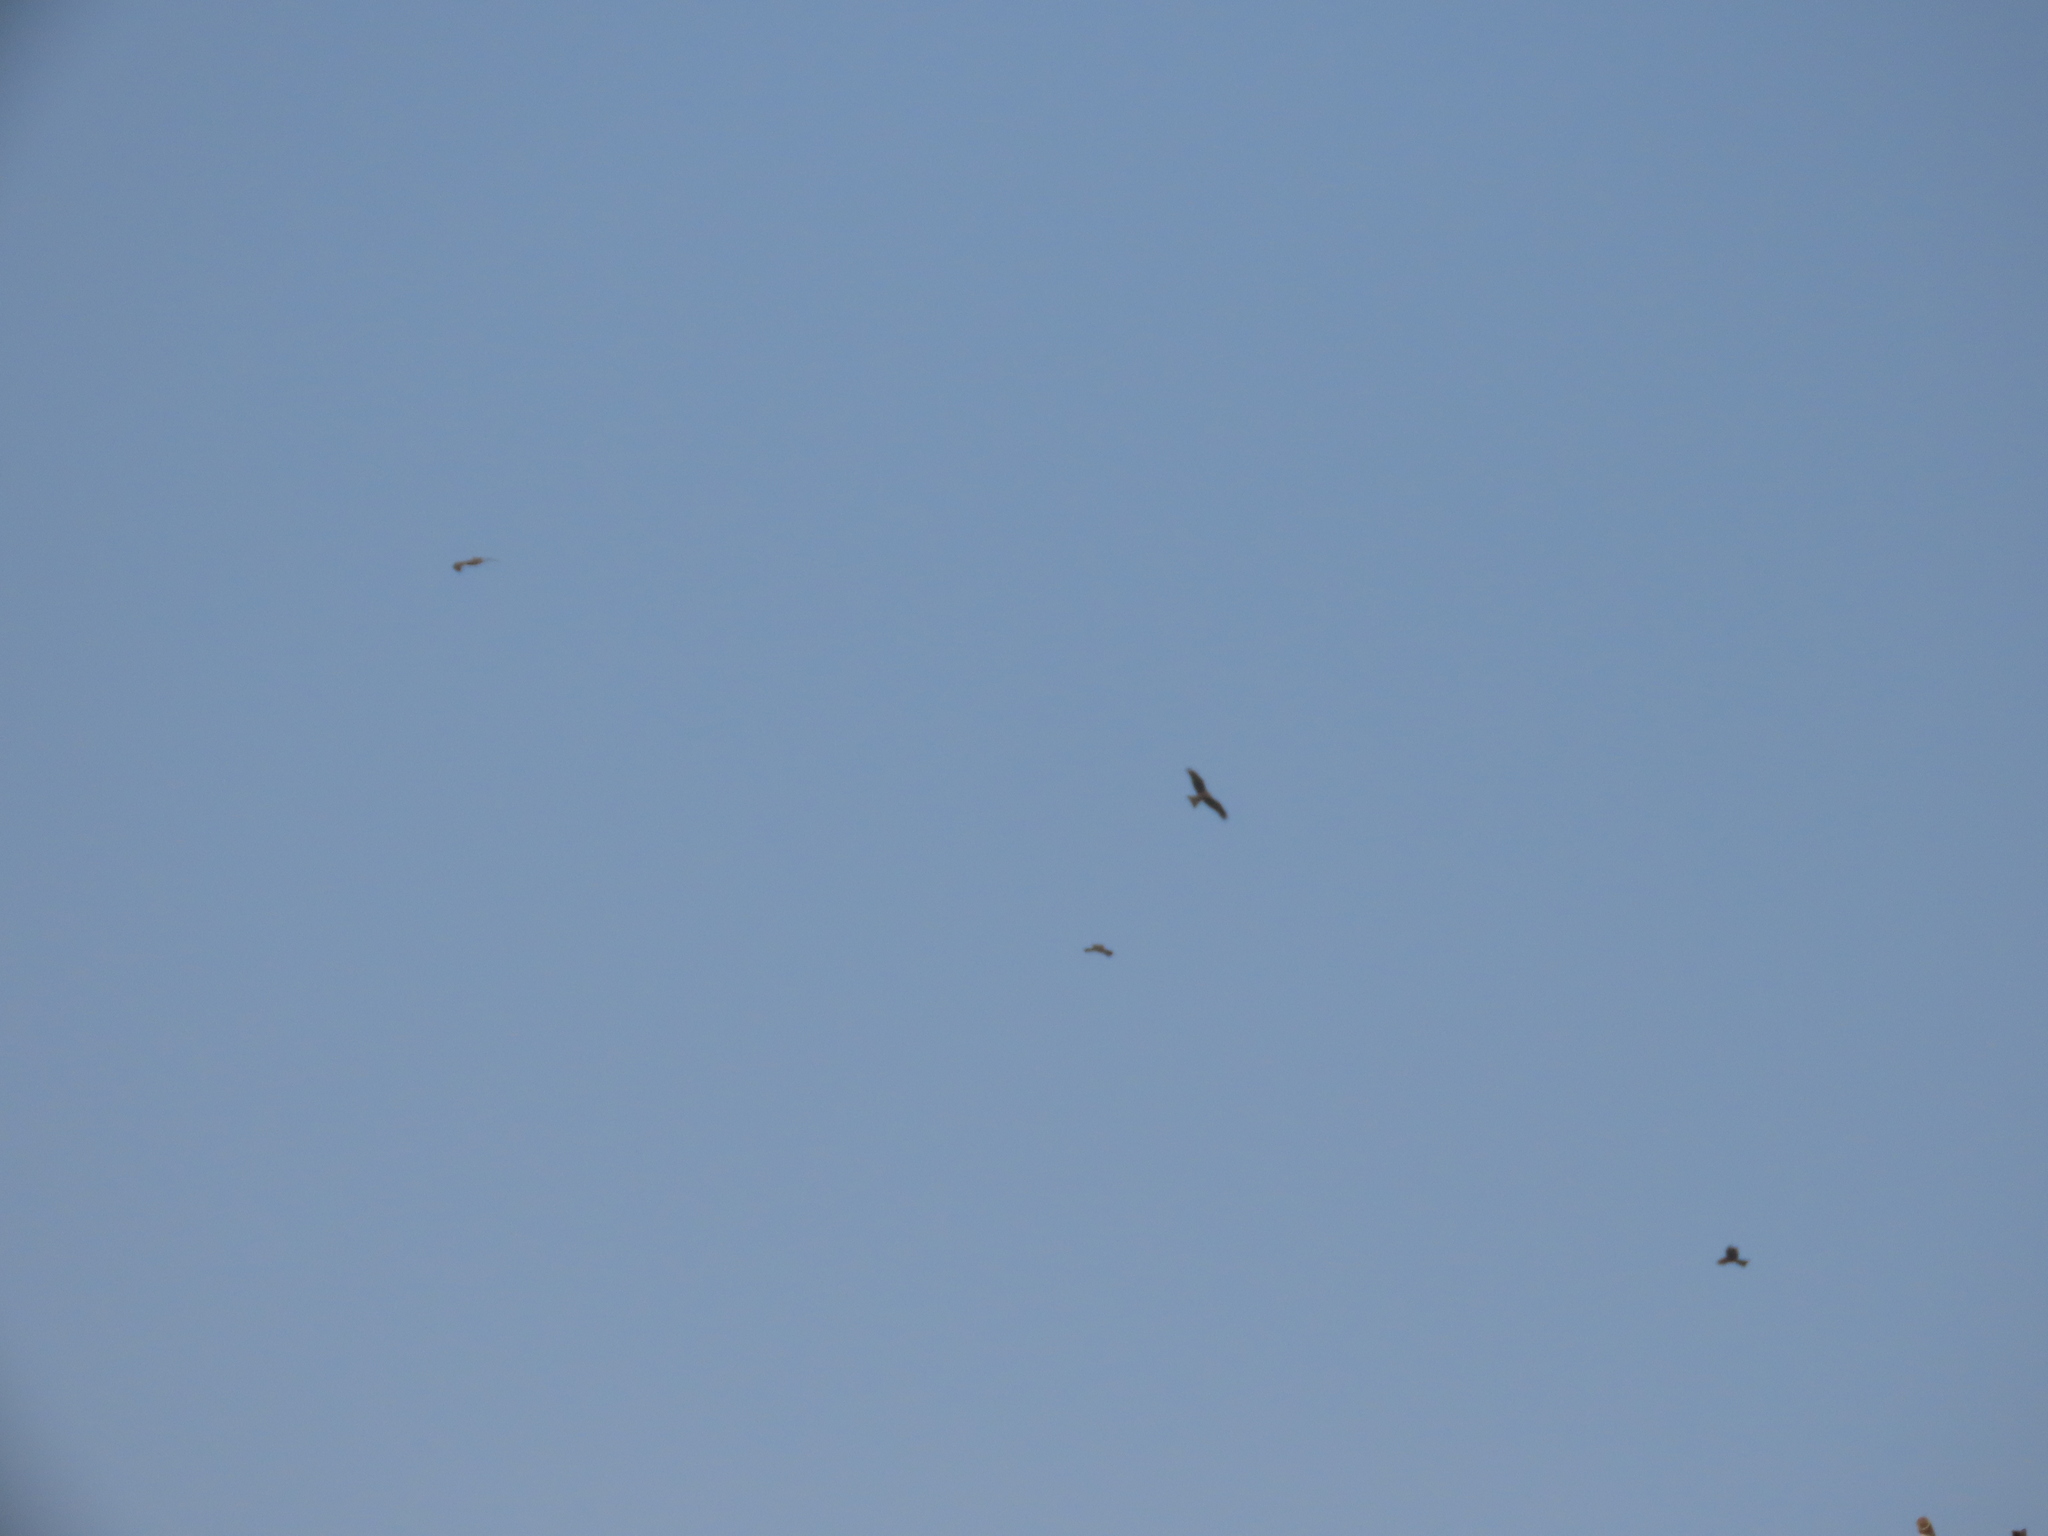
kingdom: Animalia
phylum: Chordata
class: Aves
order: Accipitriformes
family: Accipitridae
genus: Milvus
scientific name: Milvus migrans
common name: Black kite
